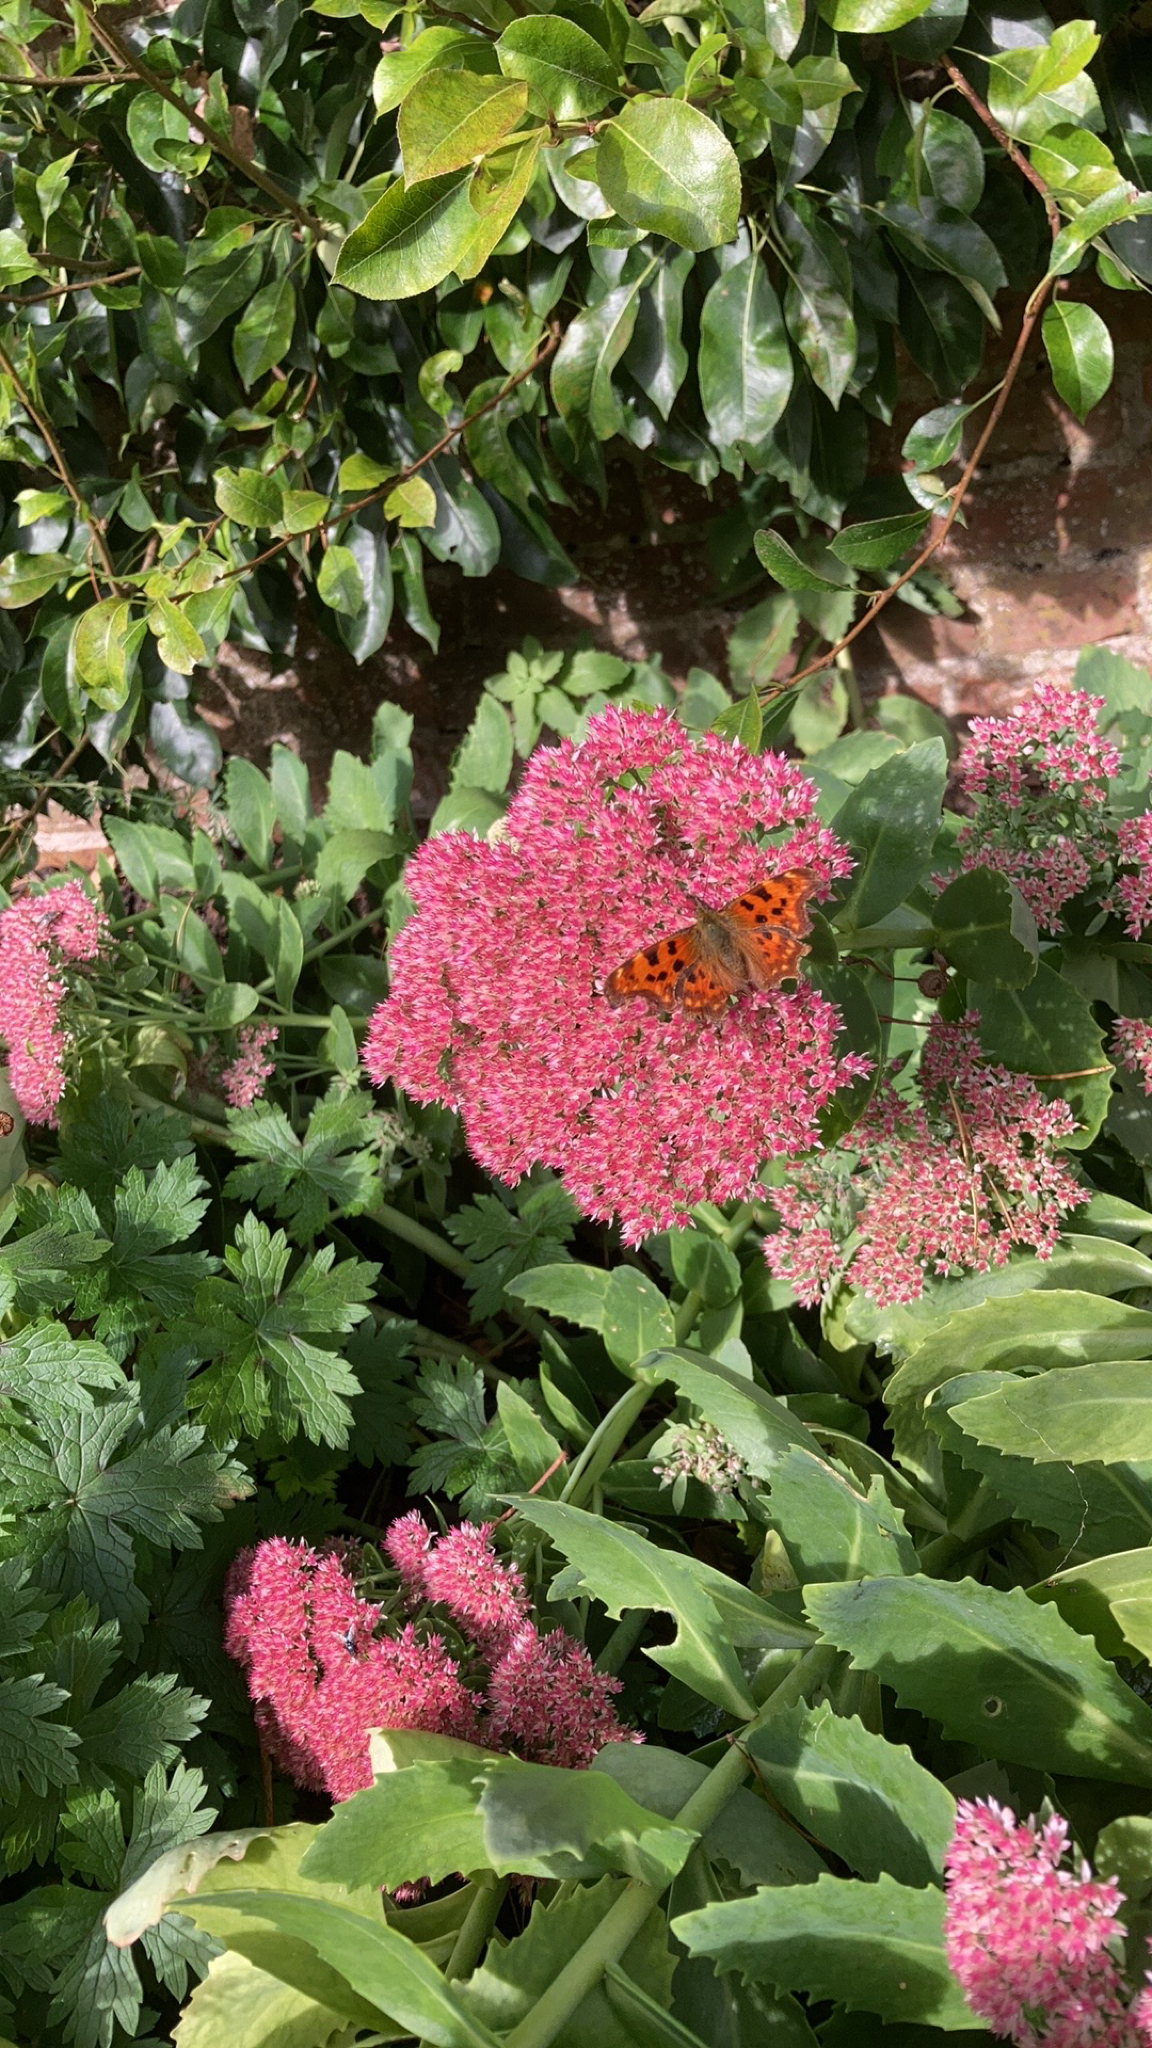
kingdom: Animalia
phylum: Arthropoda
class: Insecta
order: Lepidoptera
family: Nymphalidae
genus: Polygonia
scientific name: Polygonia c-album
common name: Comma
